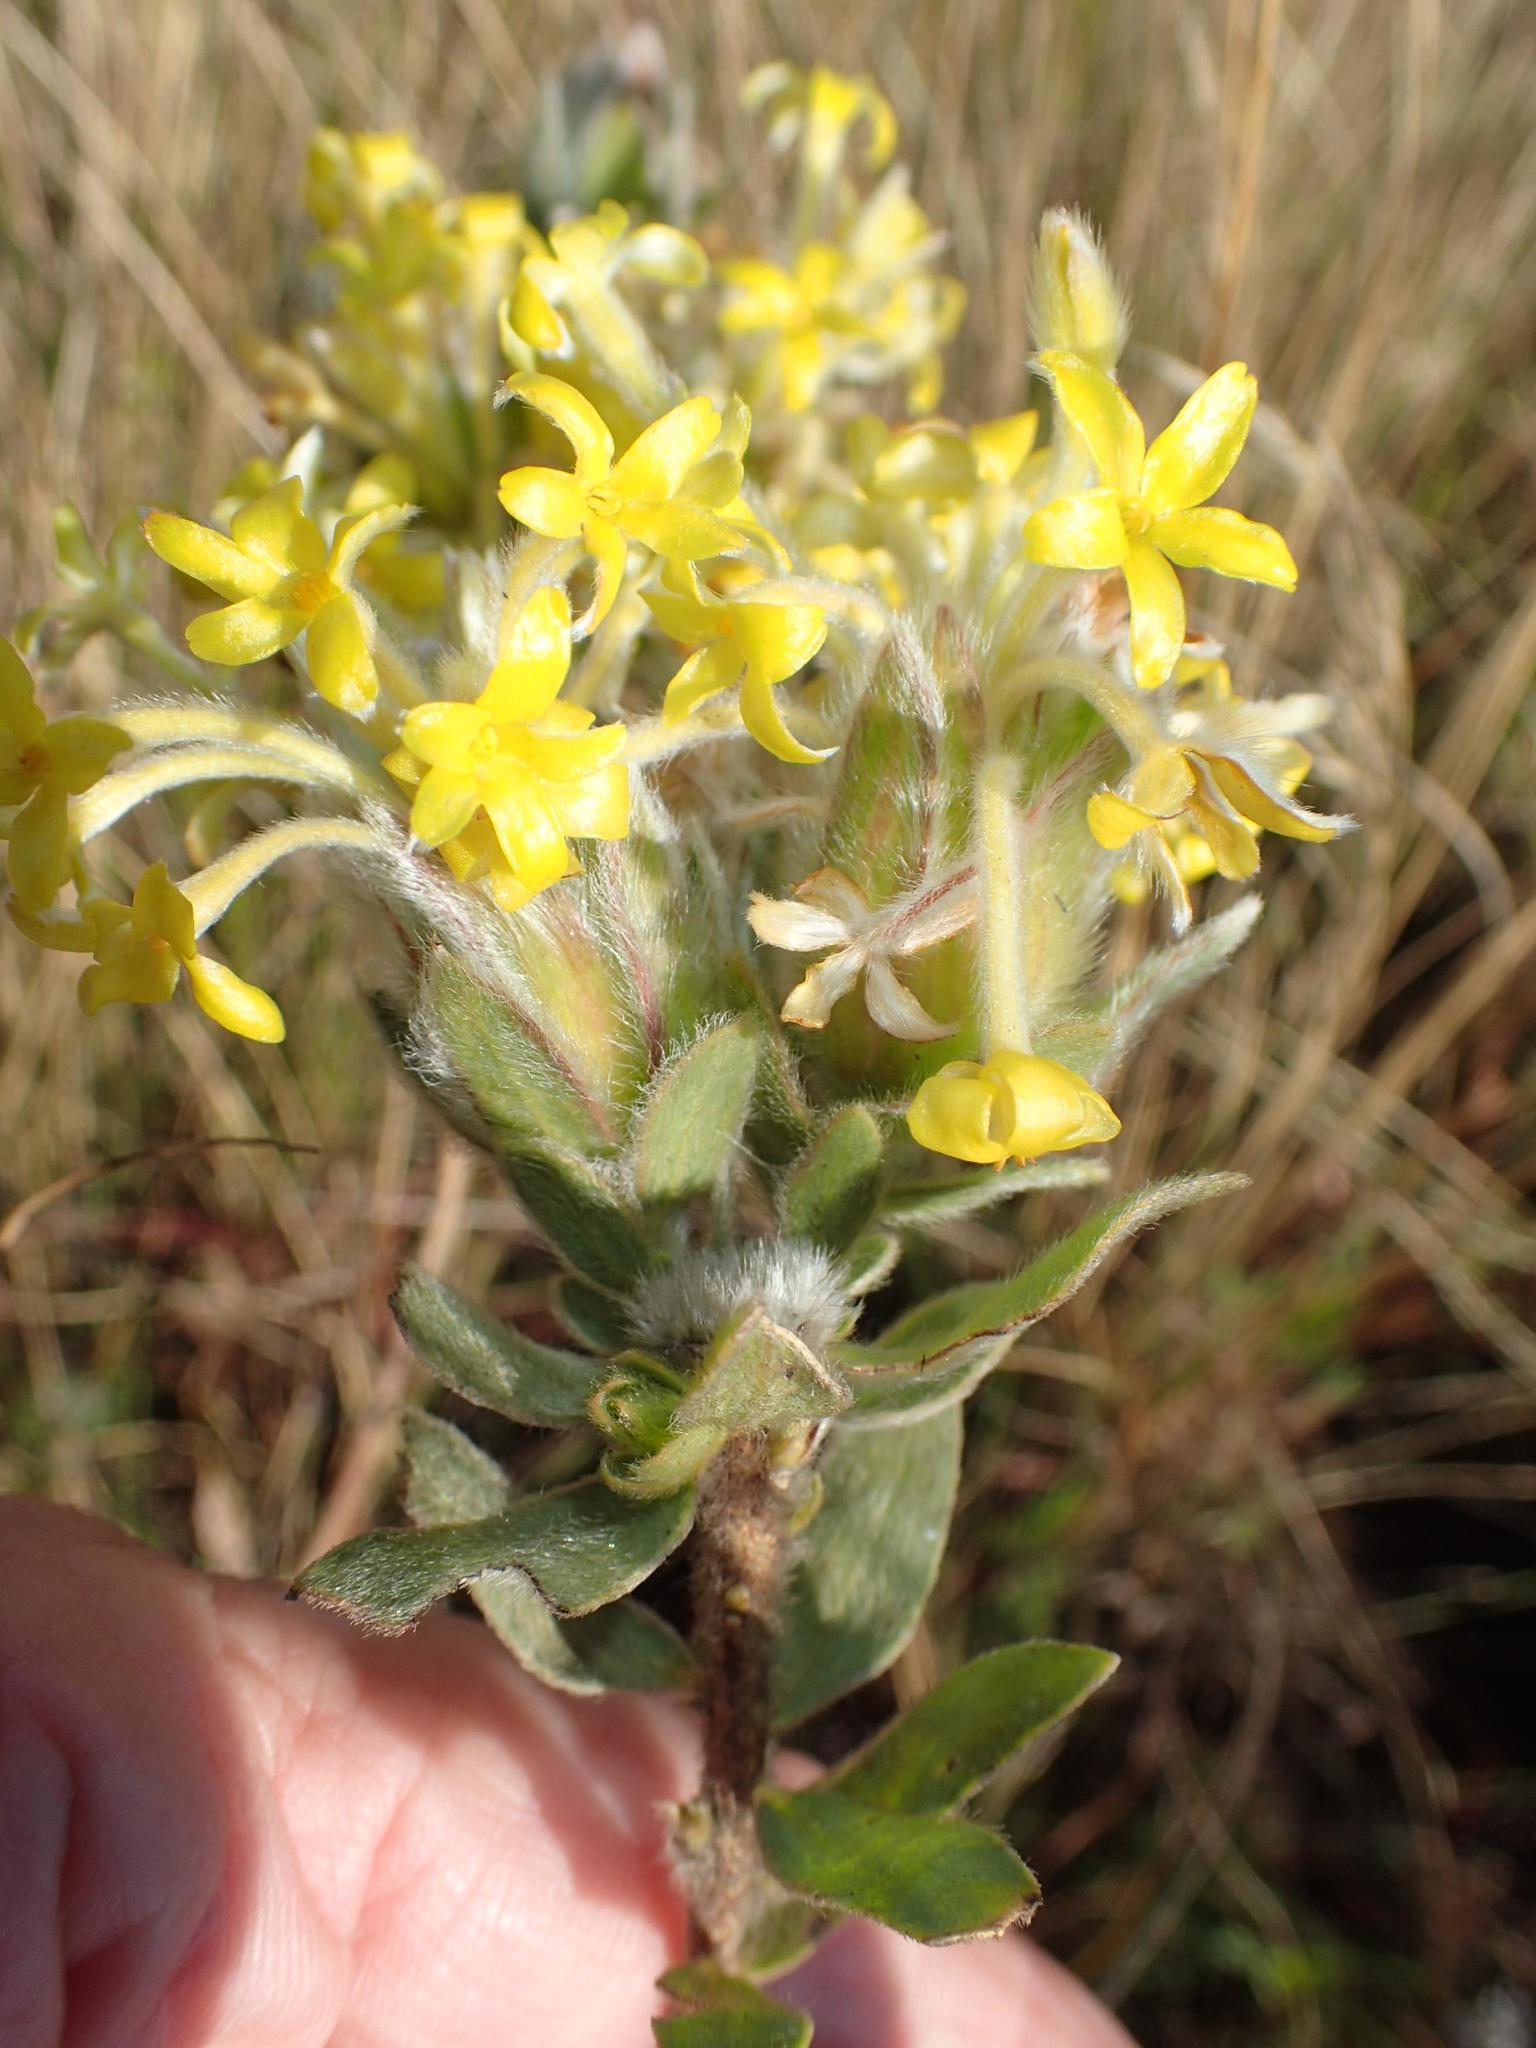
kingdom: Plantae
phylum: Tracheophyta
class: Magnoliopsida
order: Malvales
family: Thymelaeaceae
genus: Gnidia
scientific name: Gnidia anthylloides
